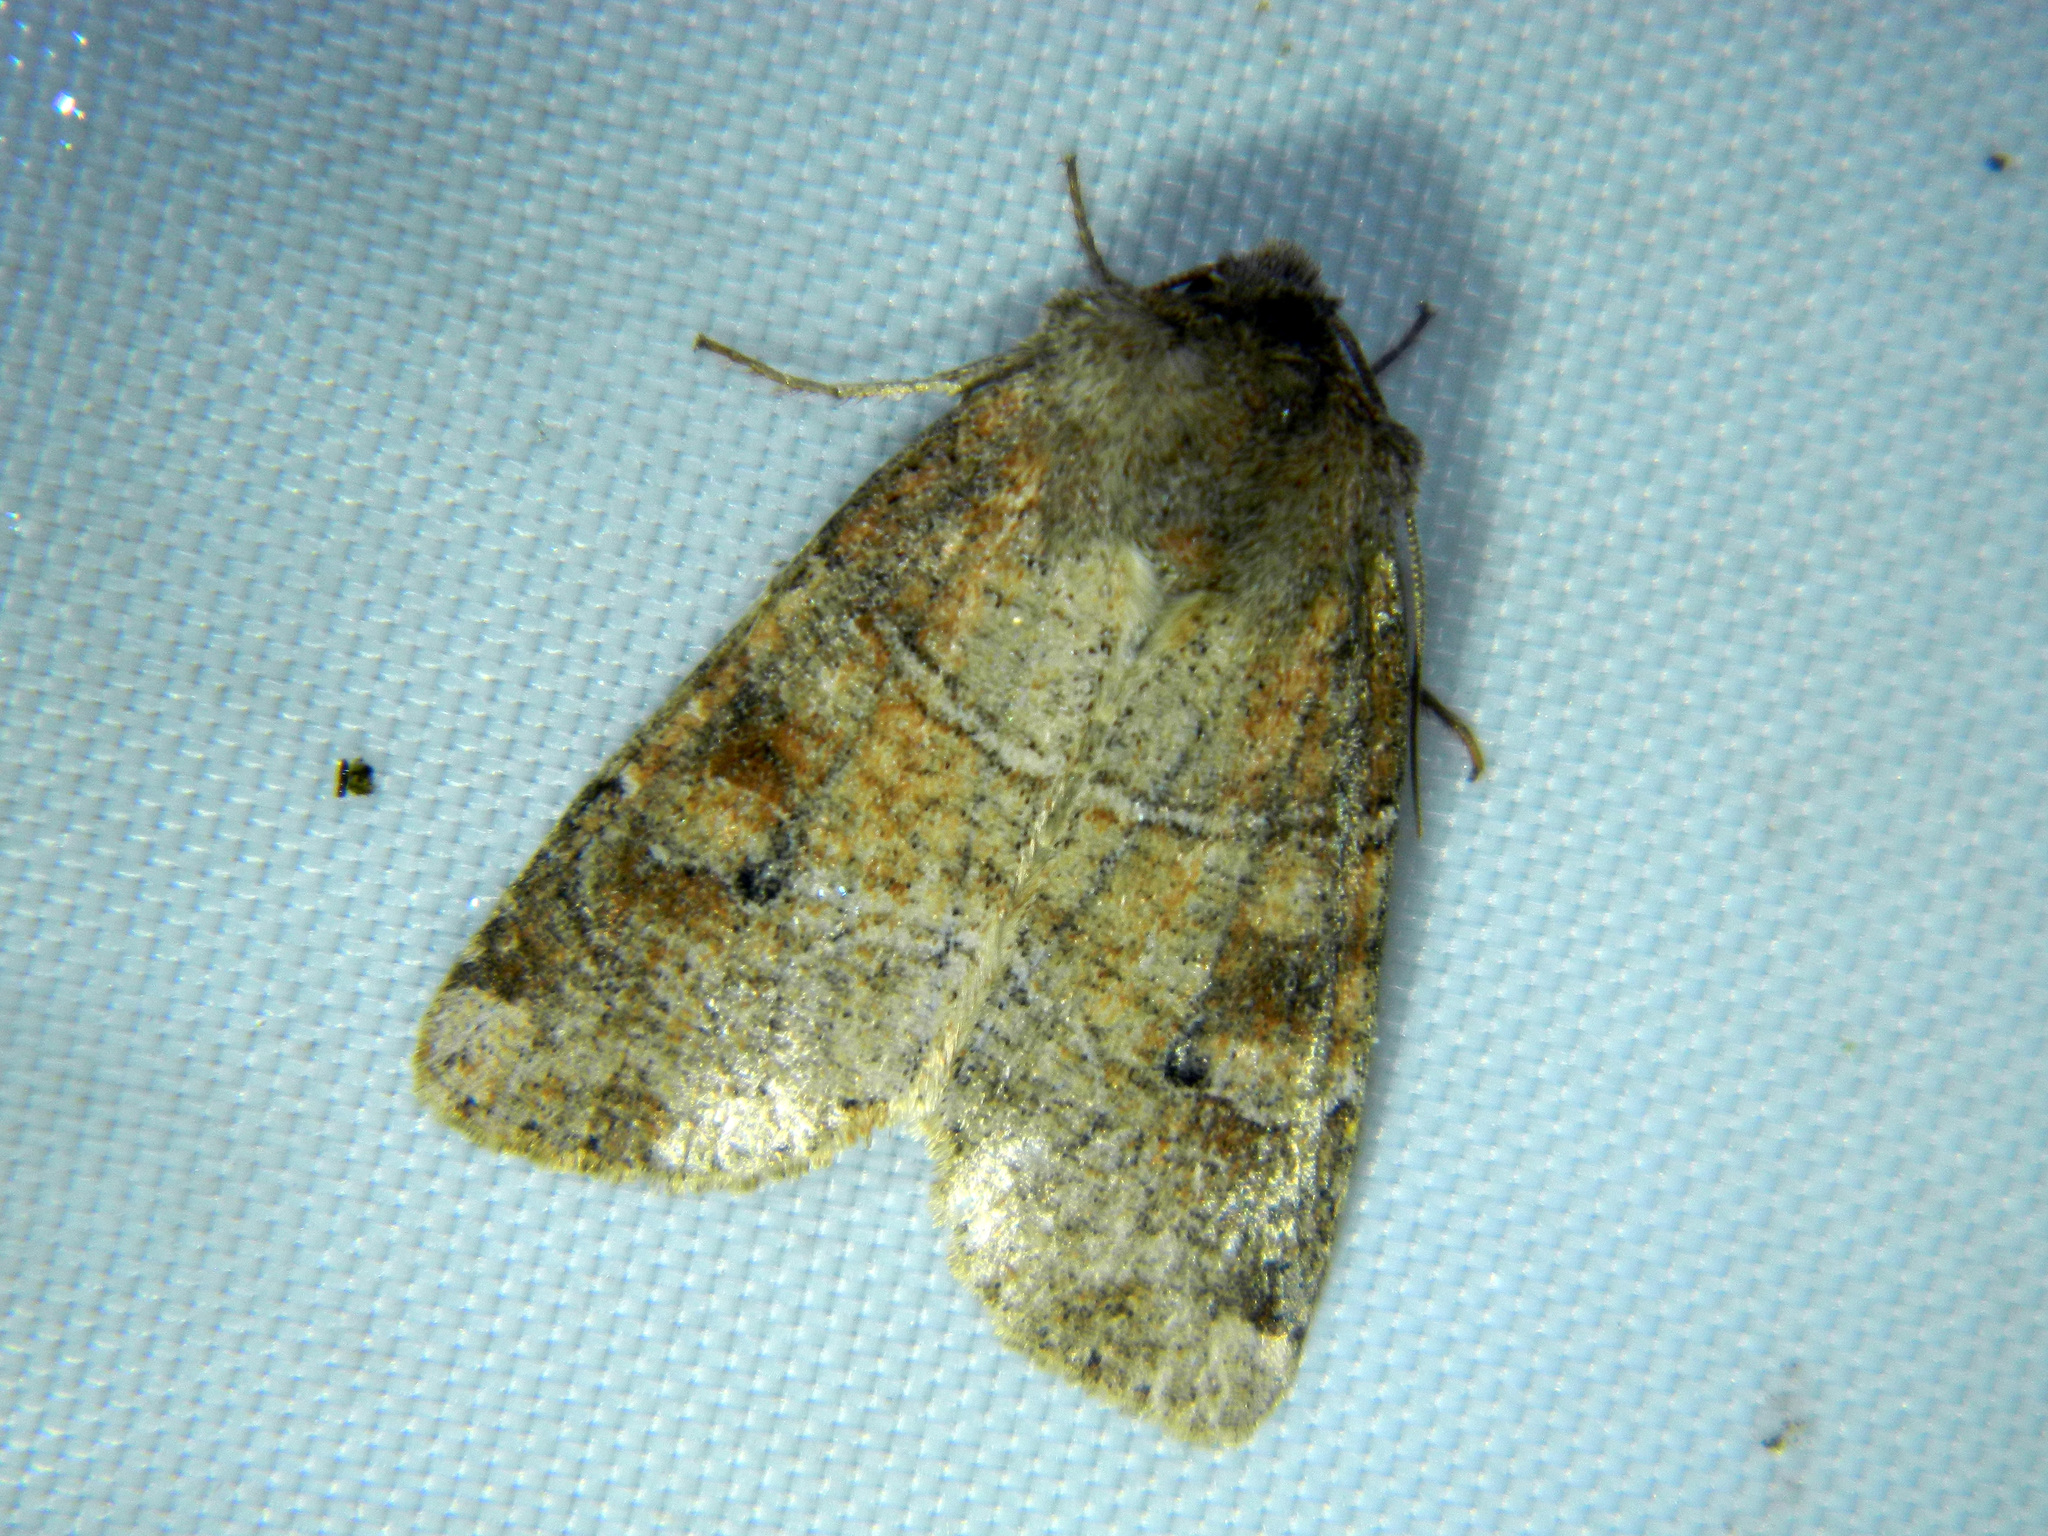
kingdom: Animalia
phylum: Arthropoda
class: Insecta
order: Lepidoptera
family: Noctuidae
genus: Crocigrapha
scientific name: Crocigrapha normani
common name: Norman's quaker
